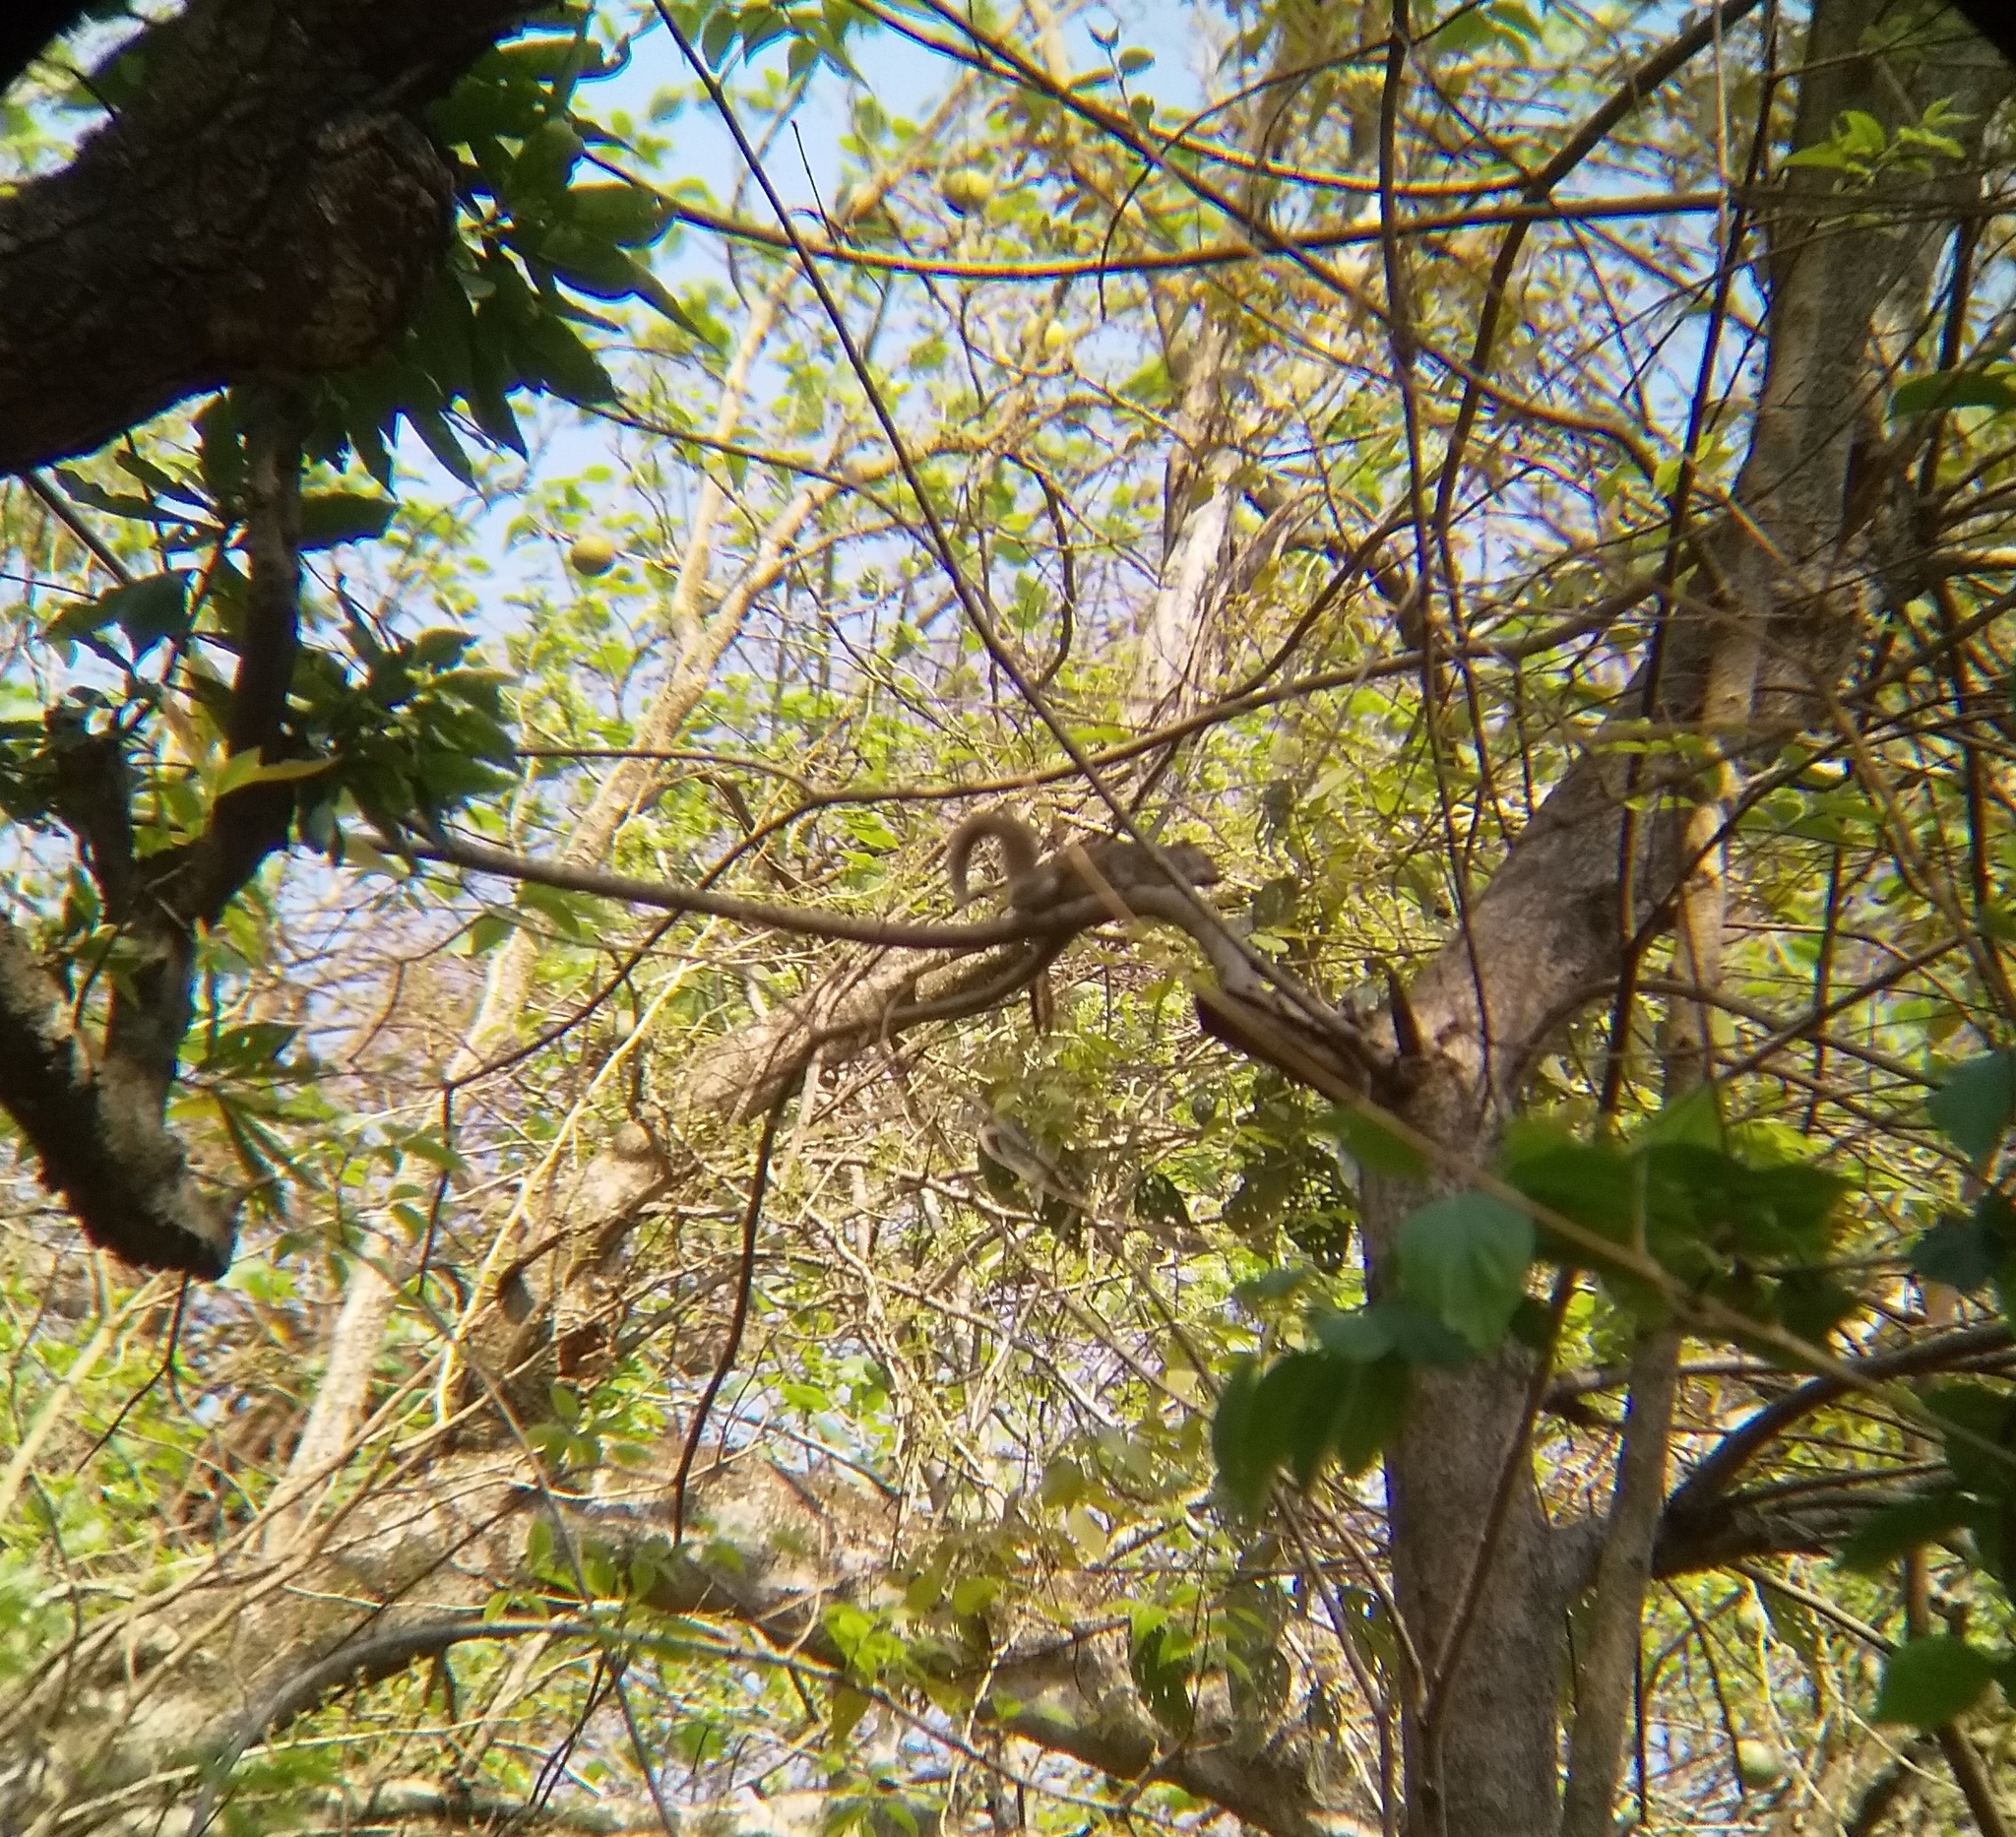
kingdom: Animalia
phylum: Chordata
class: Mammalia
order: Rodentia
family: Sciuridae
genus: Callosciurus
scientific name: Callosciurus pygerythrus
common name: Irrawaddy squirrel
